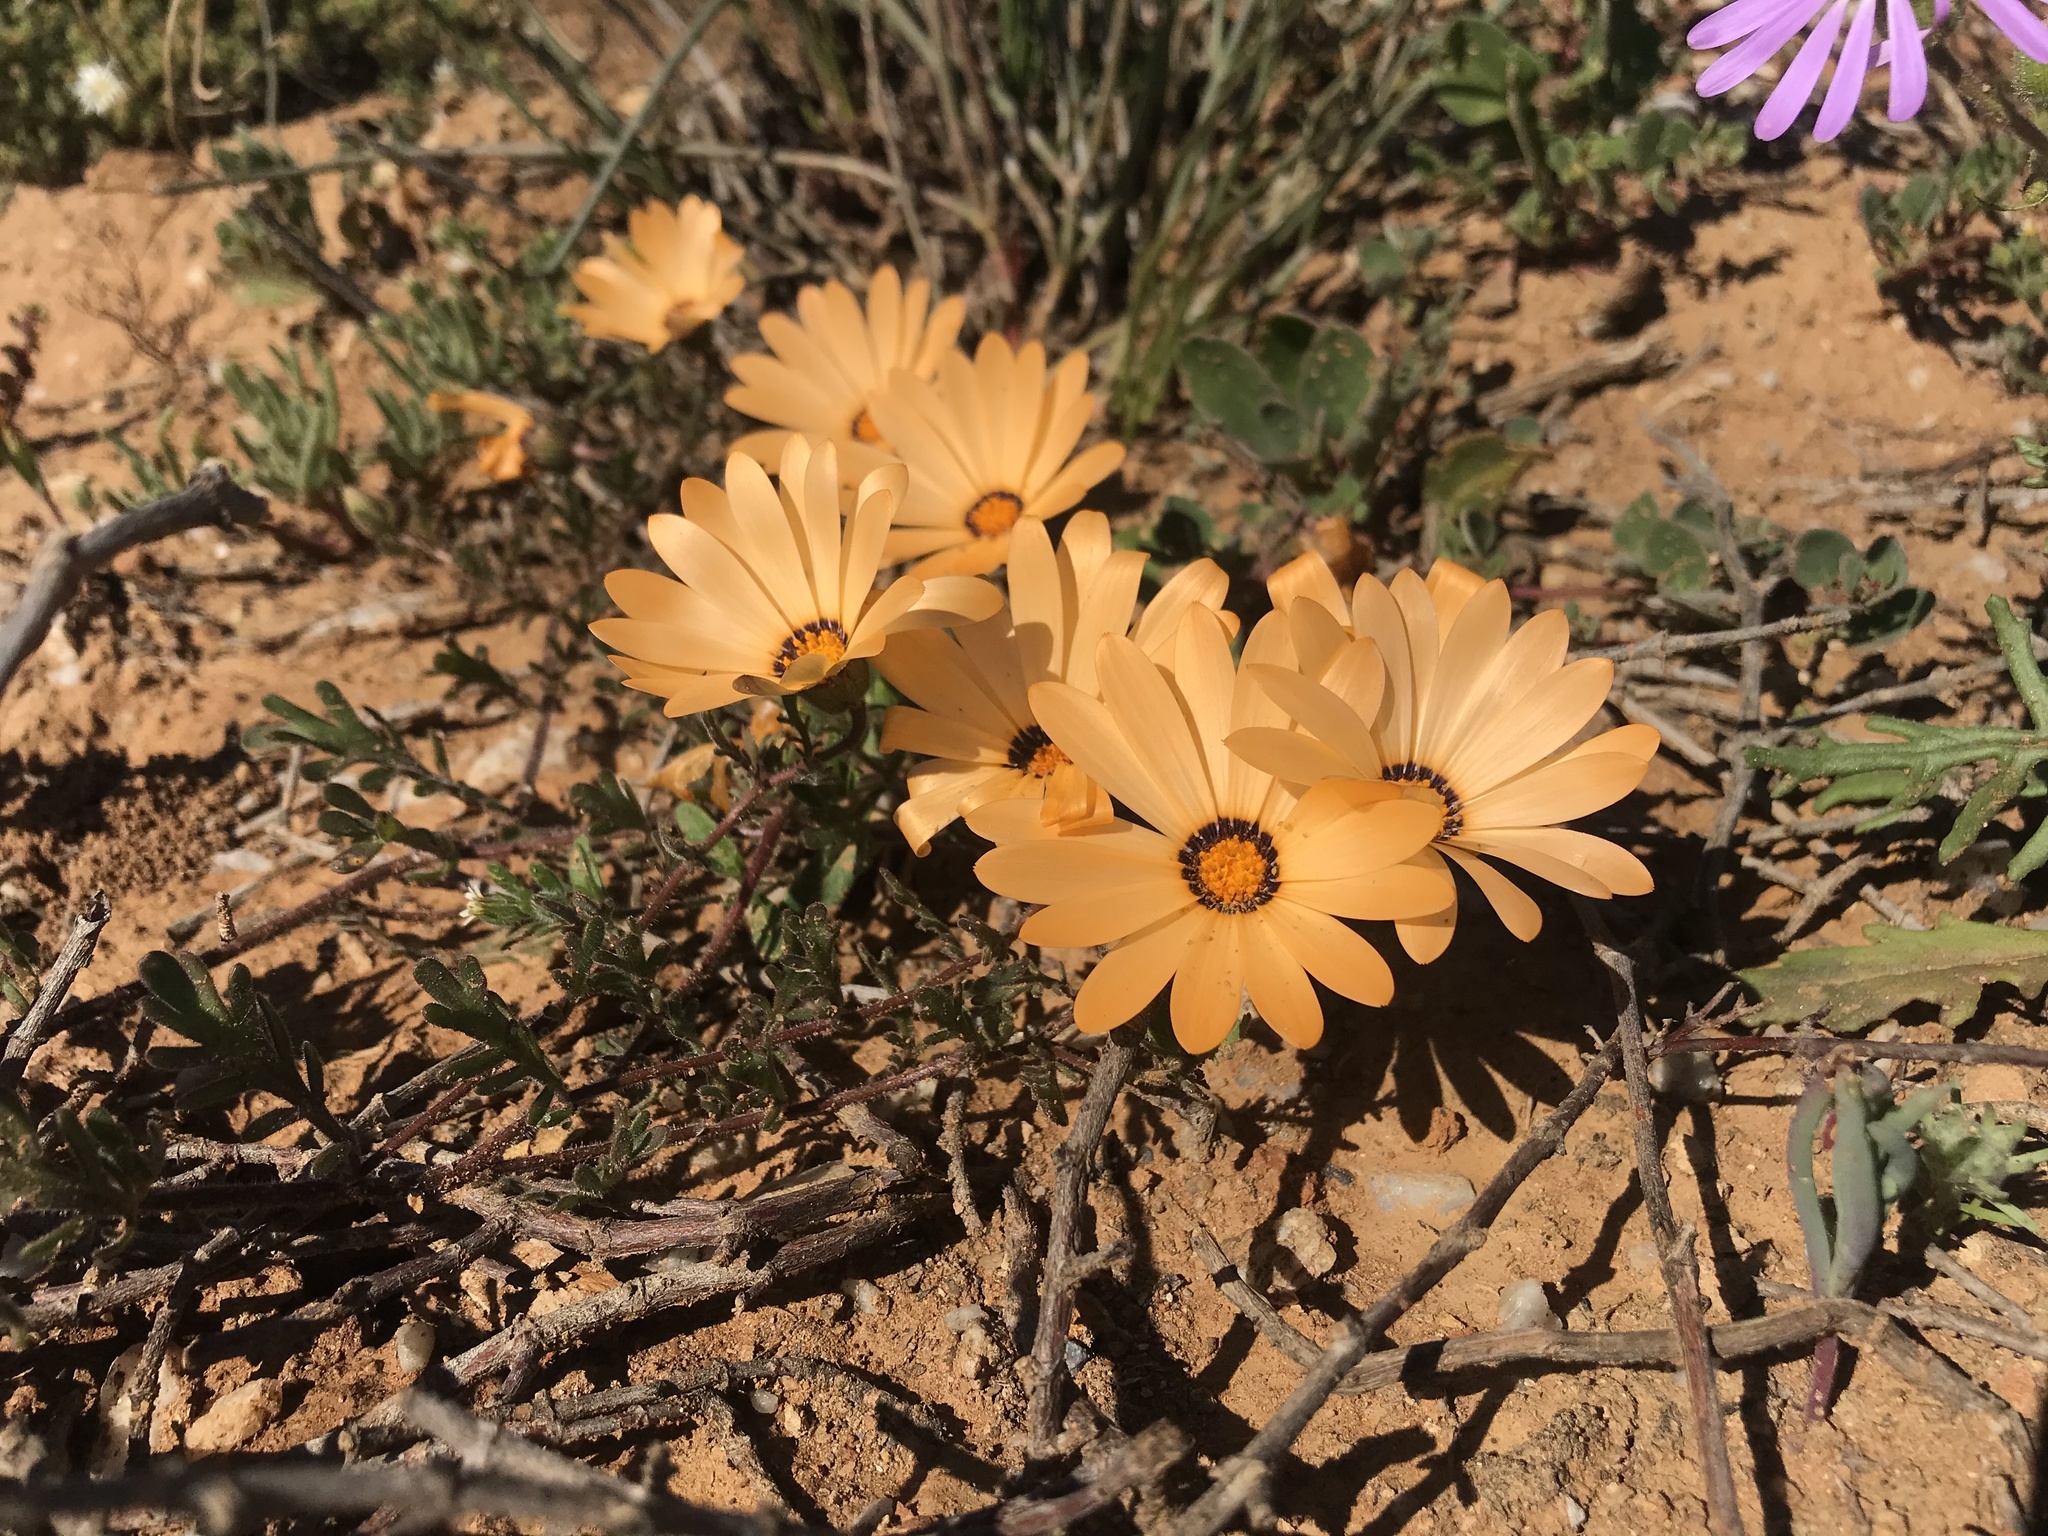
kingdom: Plantae
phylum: Tracheophyta
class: Magnoliopsida
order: Asterales
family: Asteraceae
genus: Dimorphotheca
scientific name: Dimorphotheca pinnata
